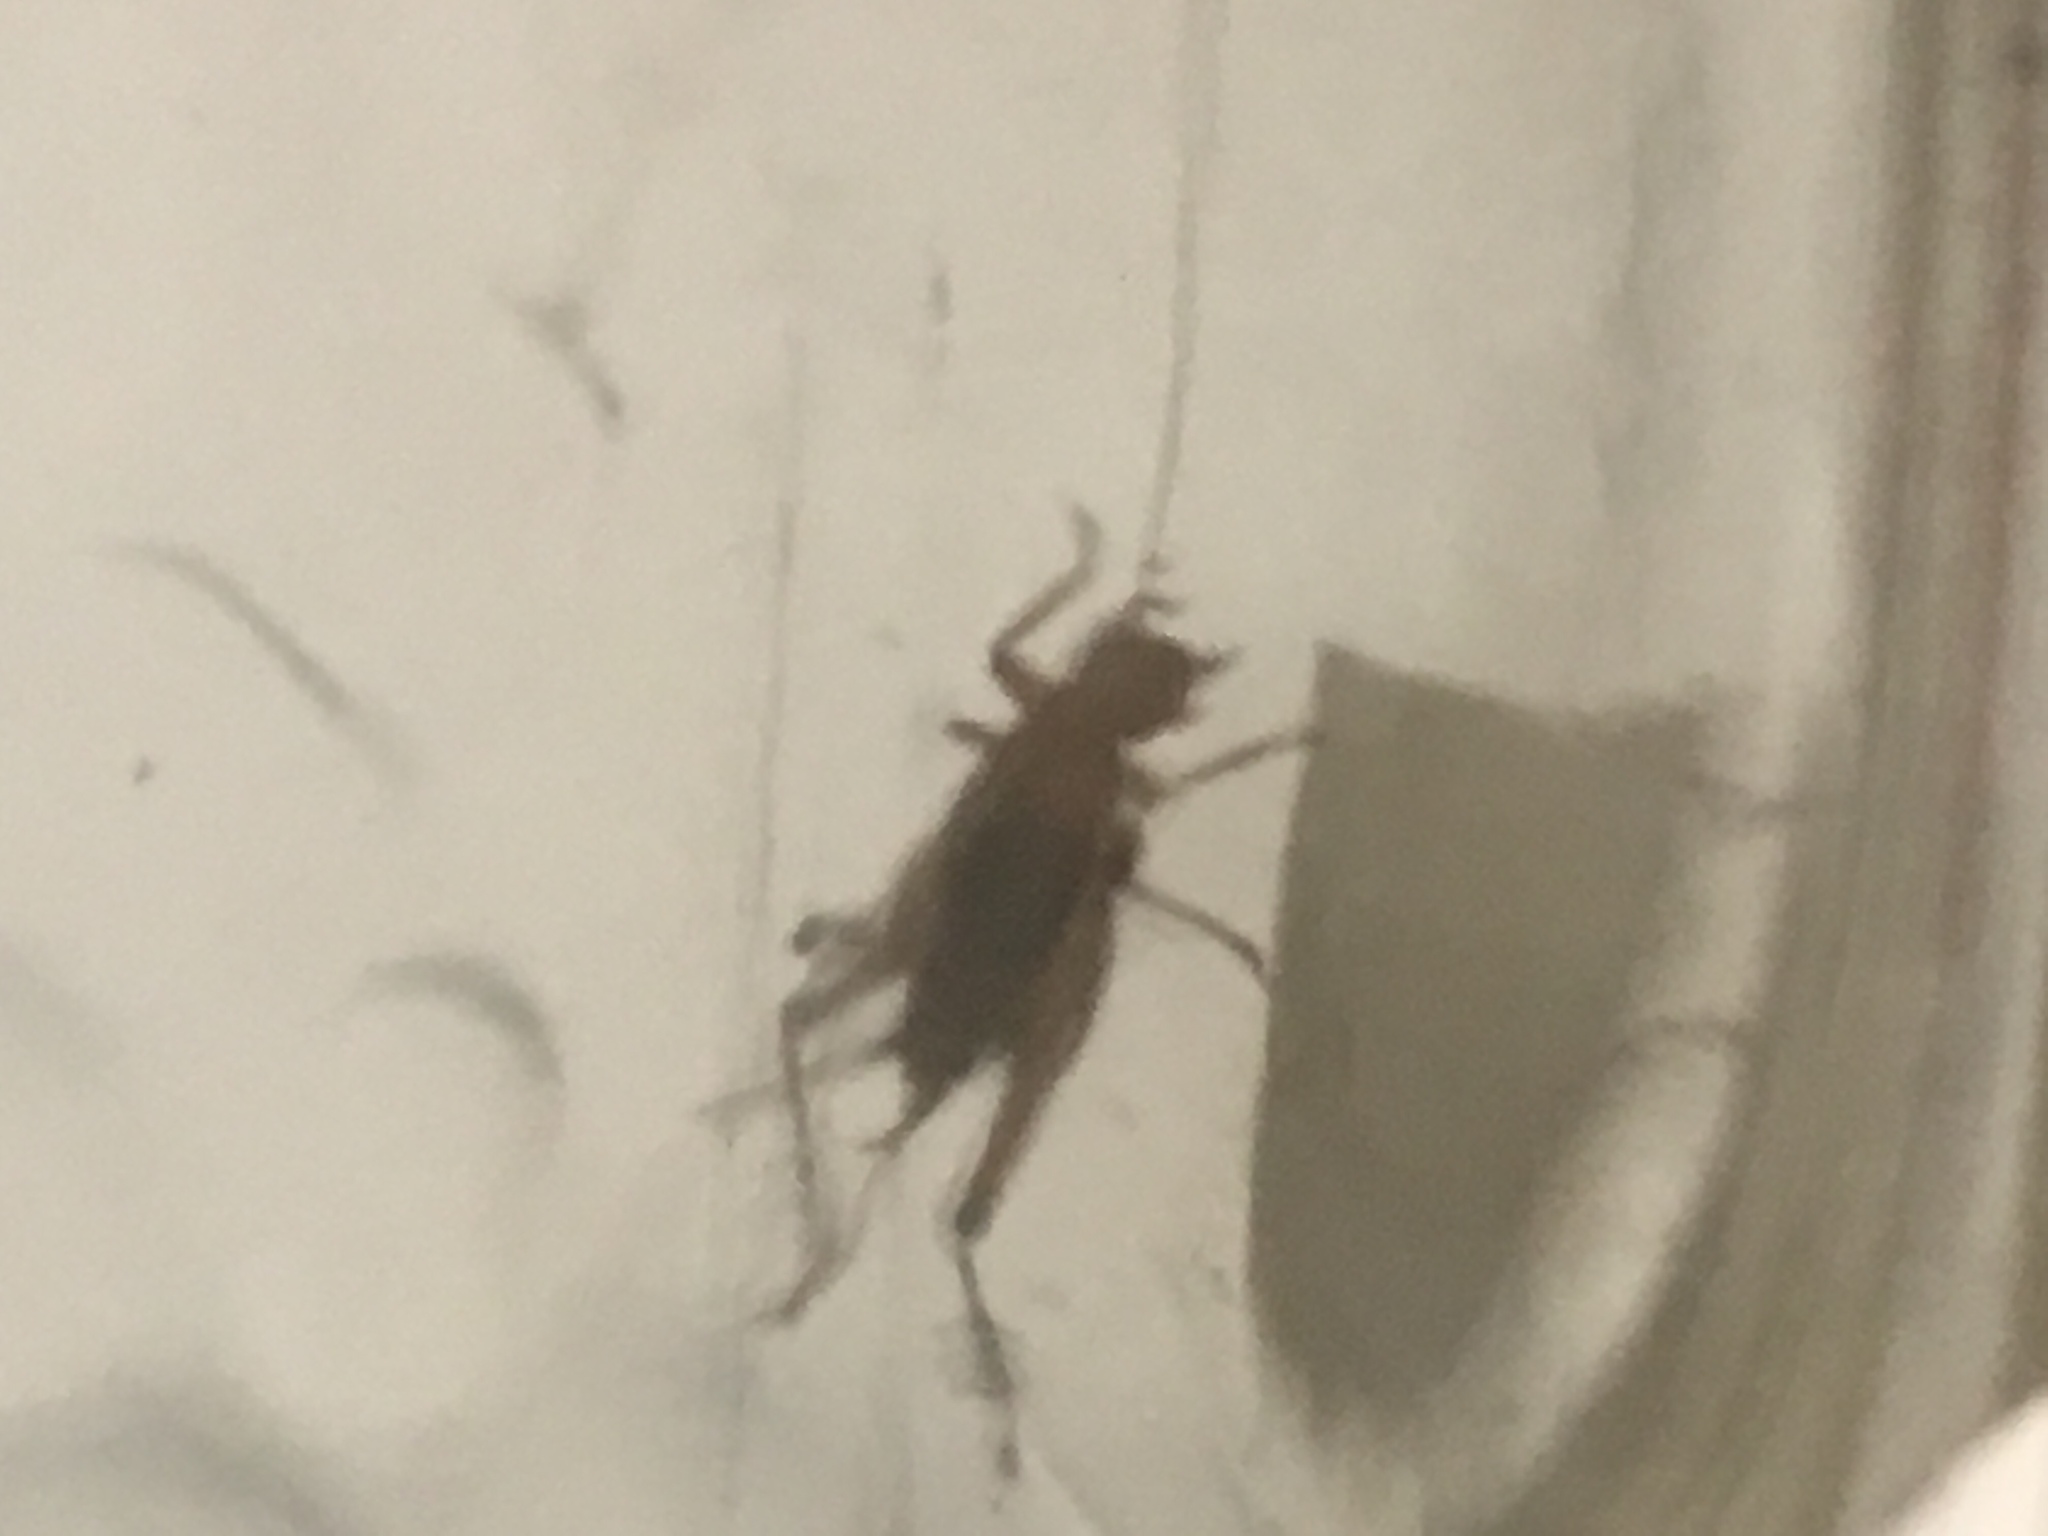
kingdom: Animalia
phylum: Arthropoda
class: Insecta
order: Orthoptera
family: Trigonidiidae
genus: Anaxipha
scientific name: Anaxipha vernalis
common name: Spring trig
